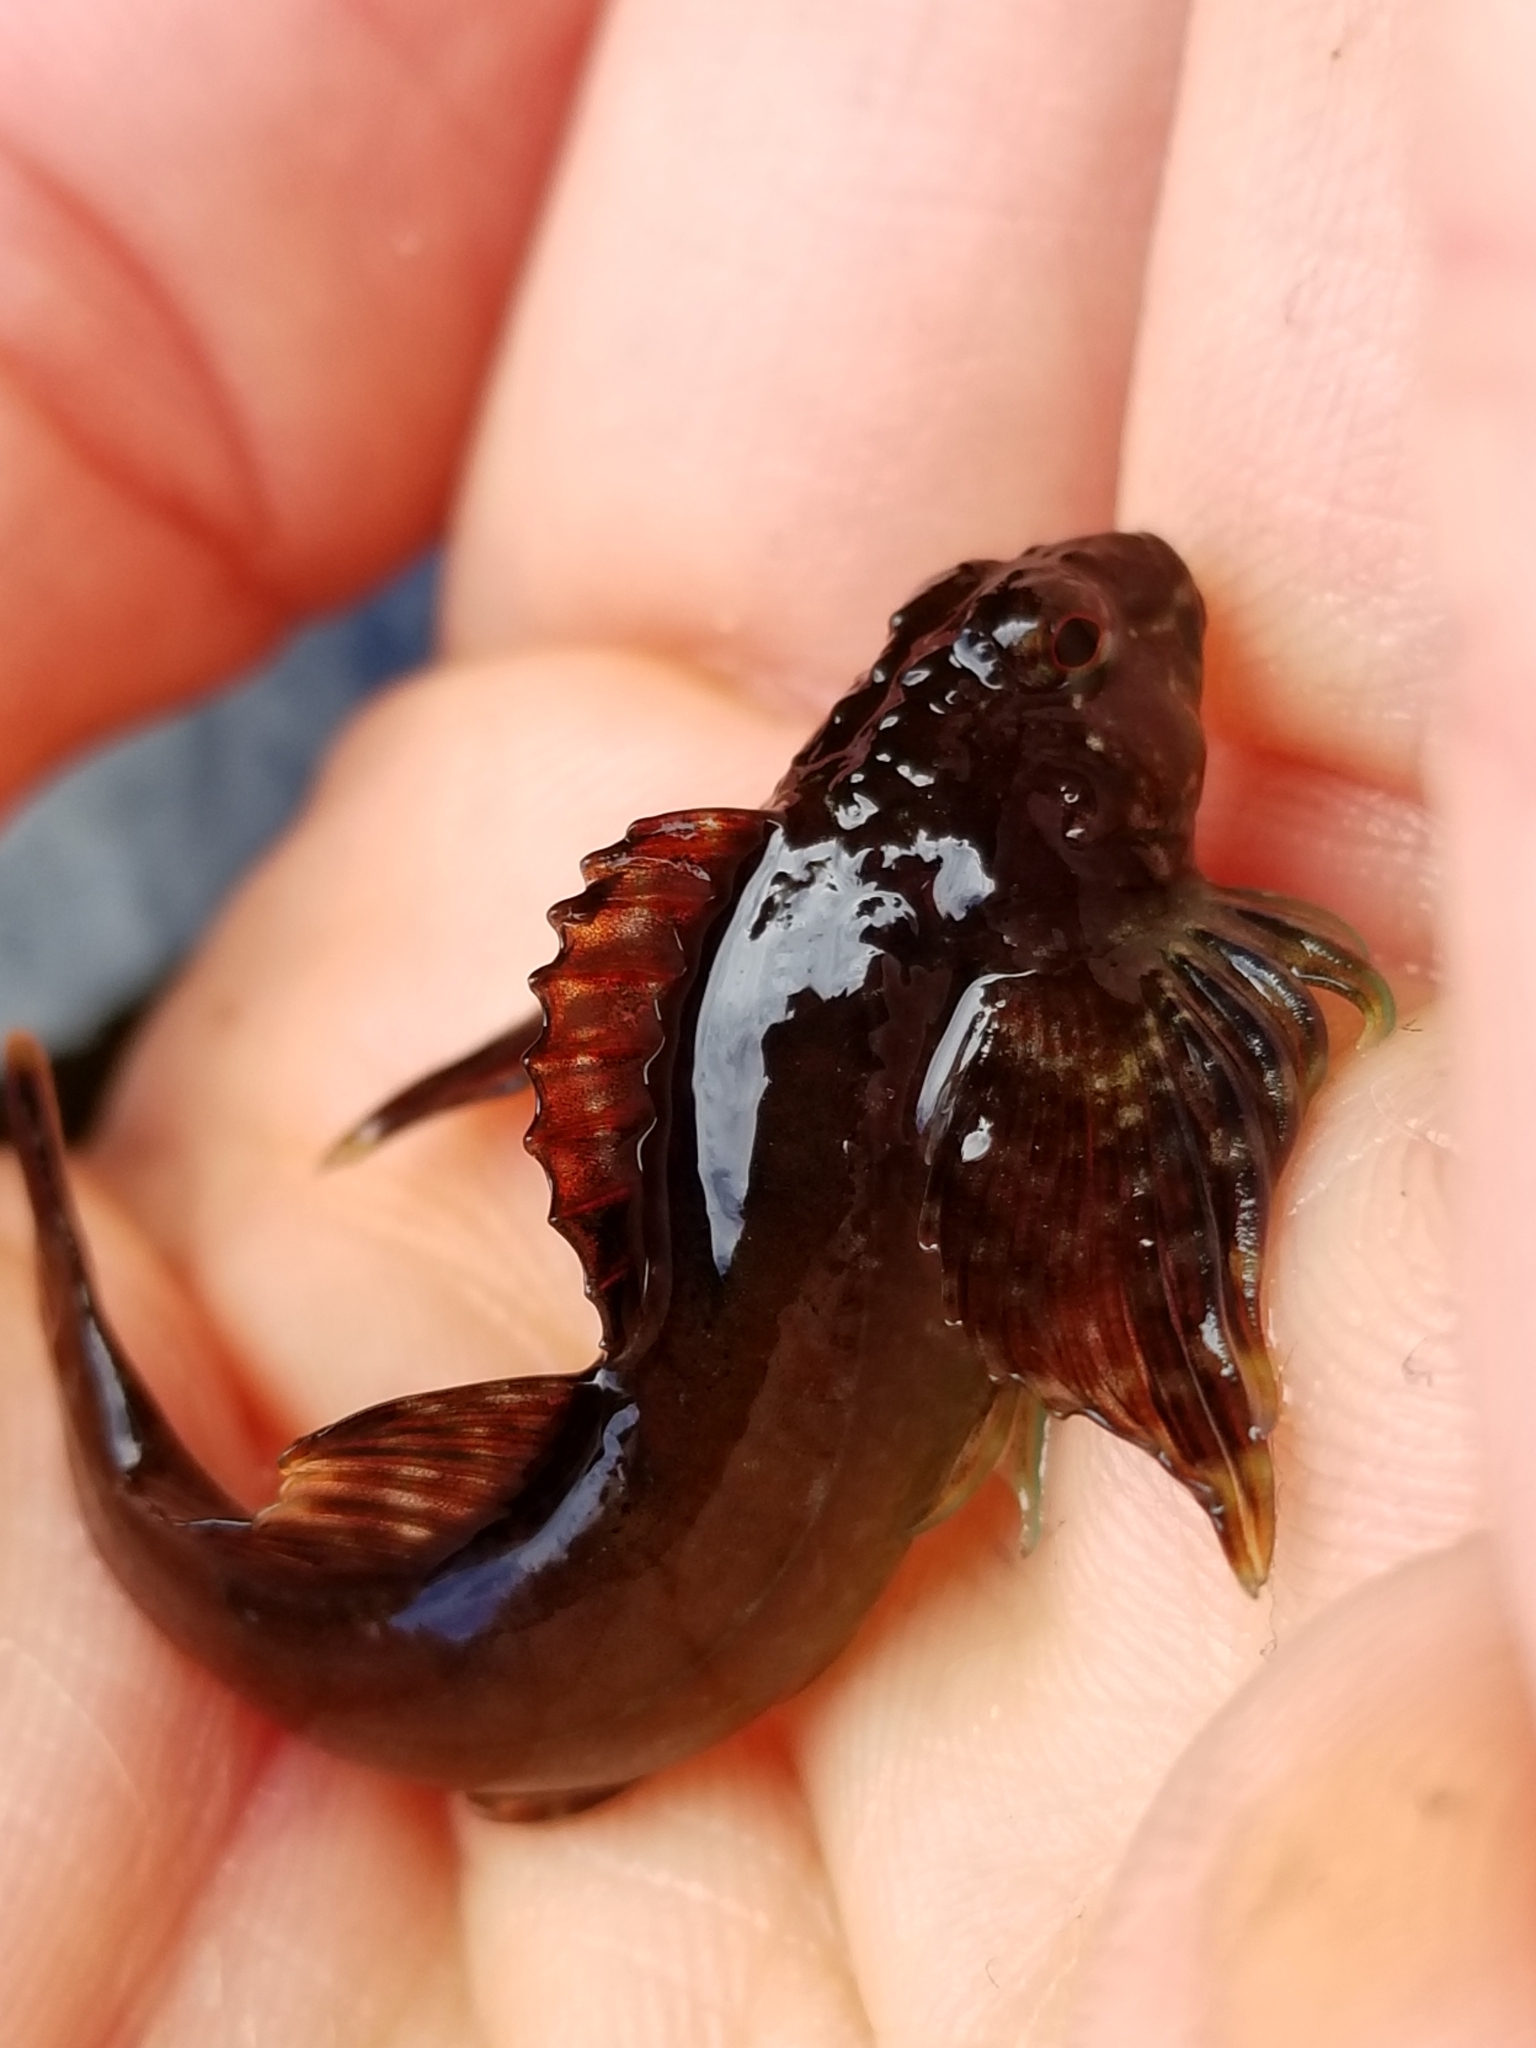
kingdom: Animalia
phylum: Chordata
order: Scorpaeniformes
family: Cottidae
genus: Oligocottus
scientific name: Oligocottus snyderi
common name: Fluffy sculpin
